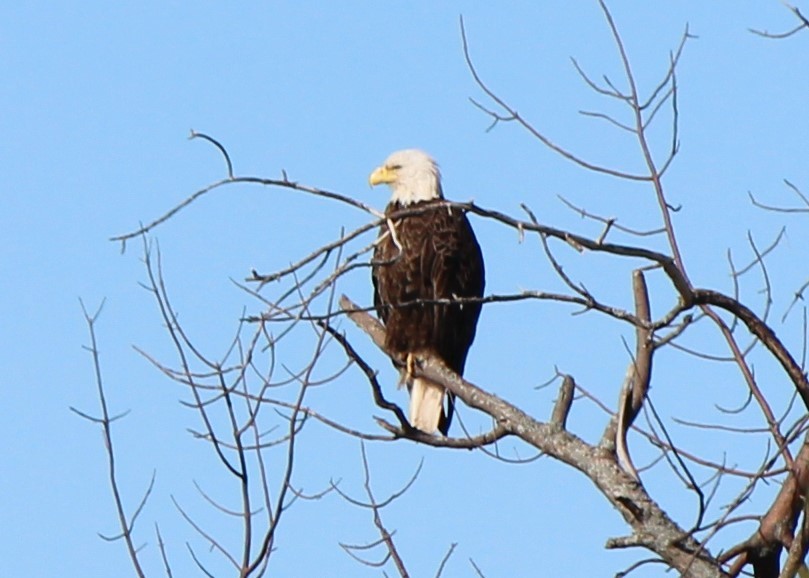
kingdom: Animalia
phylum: Chordata
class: Aves
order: Accipitriformes
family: Accipitridae
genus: Haliaeetus
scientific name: Haliaeetus leucocephalus
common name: Bald eagle
